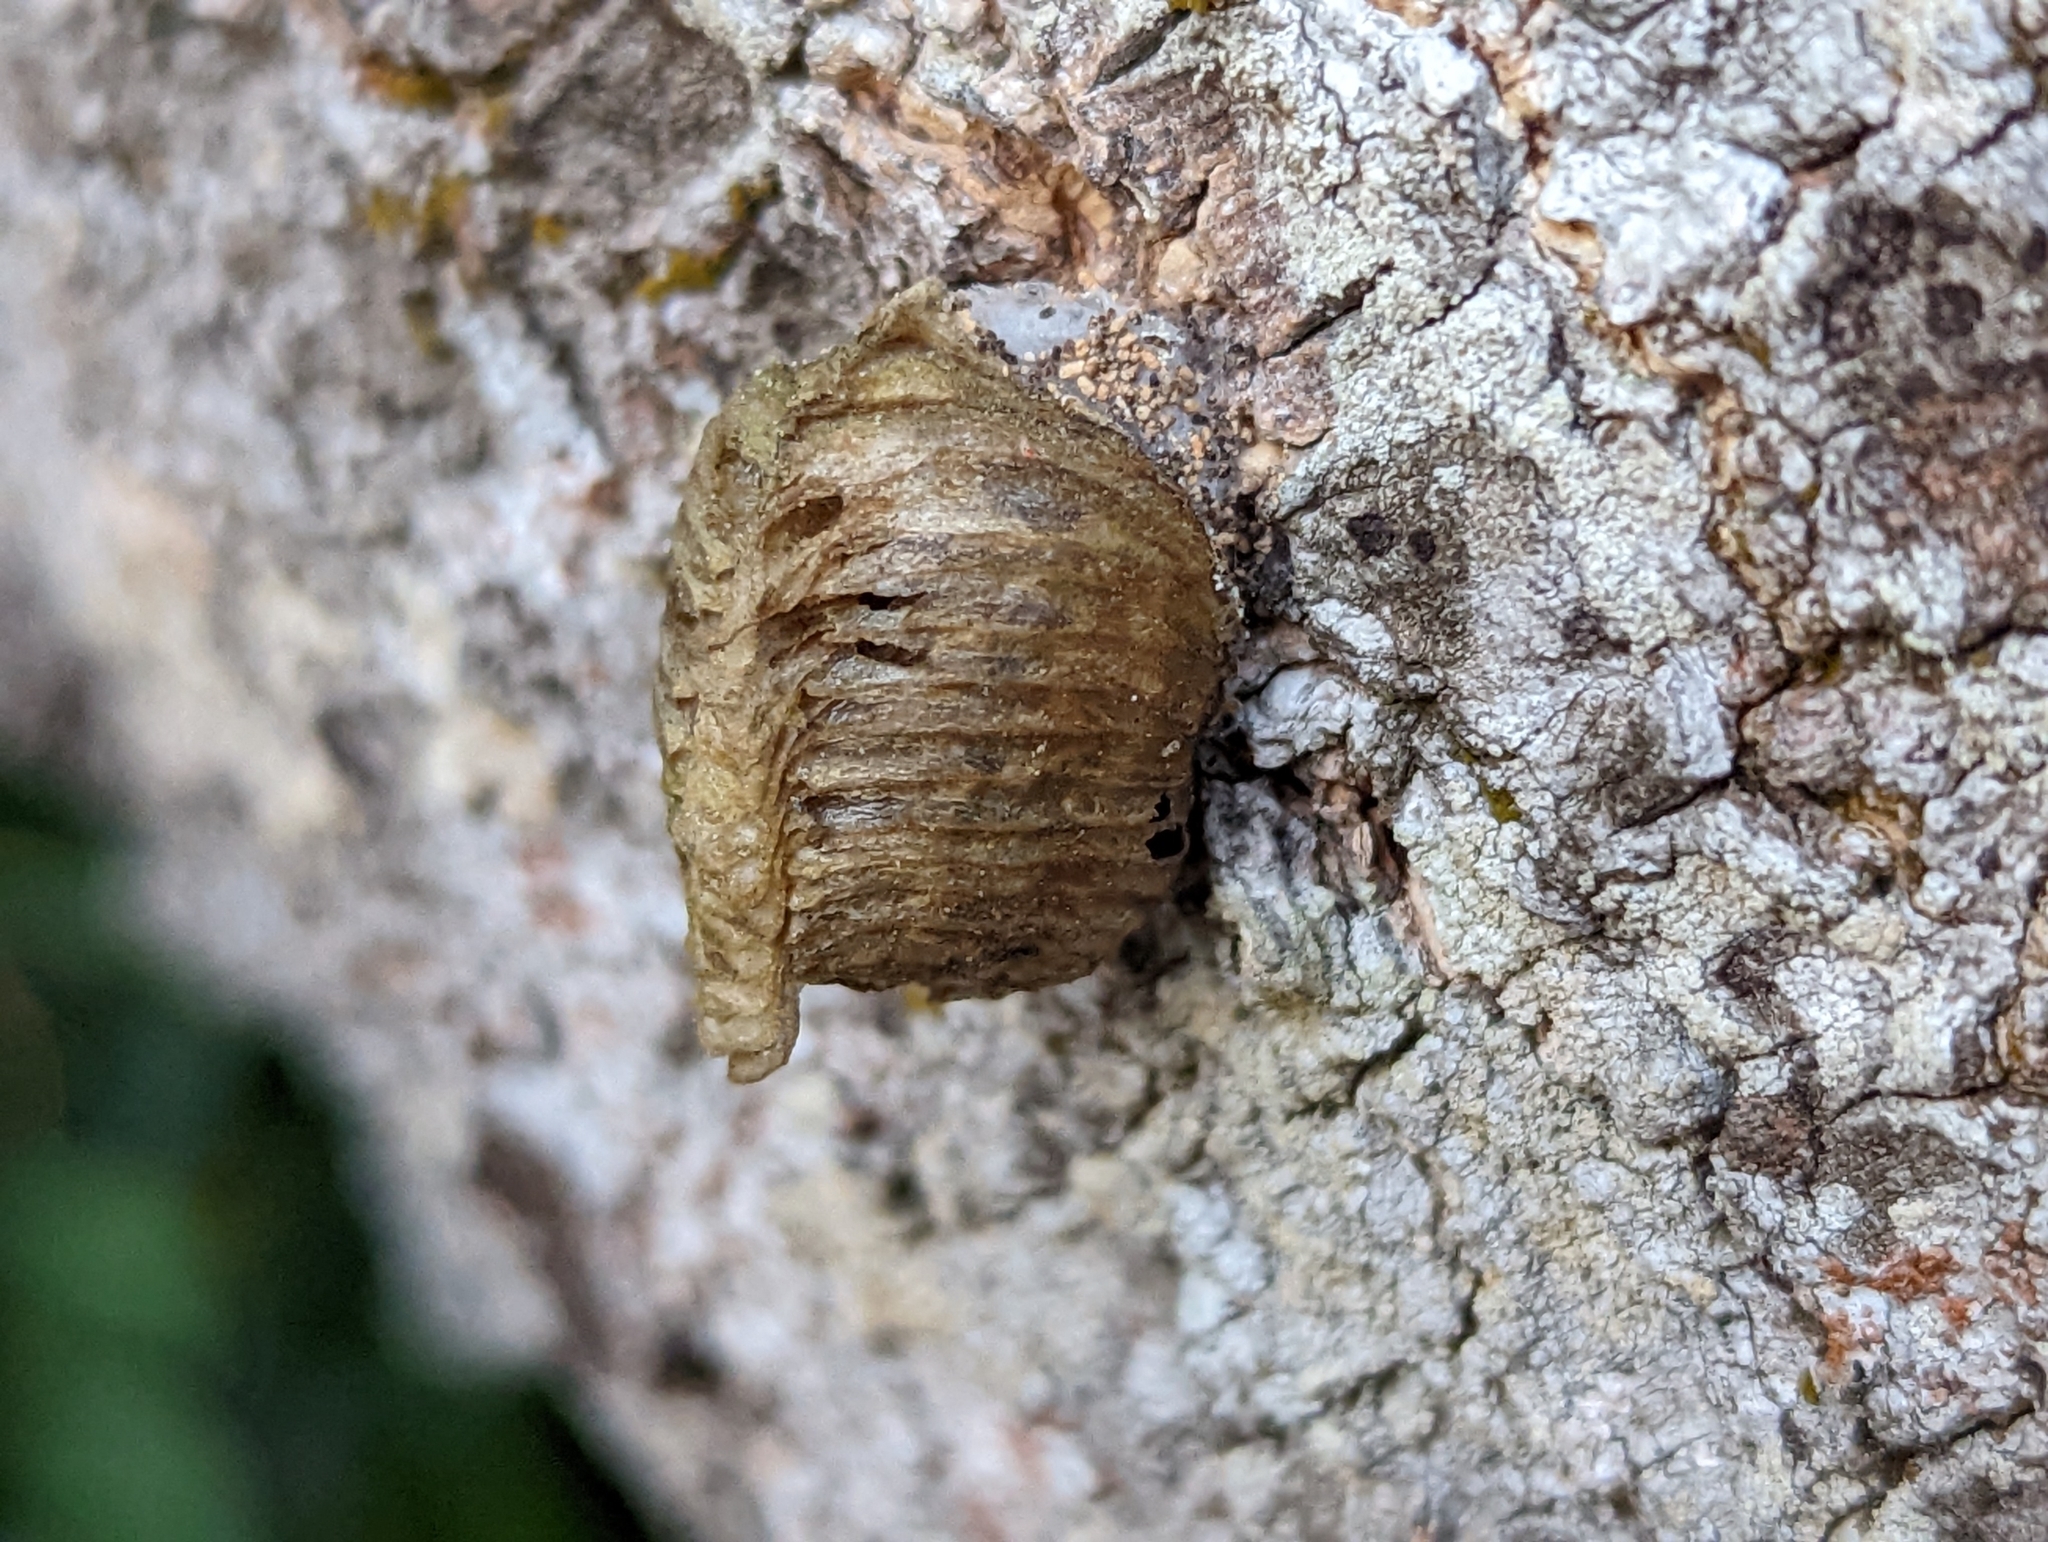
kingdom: Animalia
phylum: Arthropoda
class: Insecta
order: Mantodea
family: Mantidae
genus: Hierodula
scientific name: Hierodula patellifera
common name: Asian mantis
